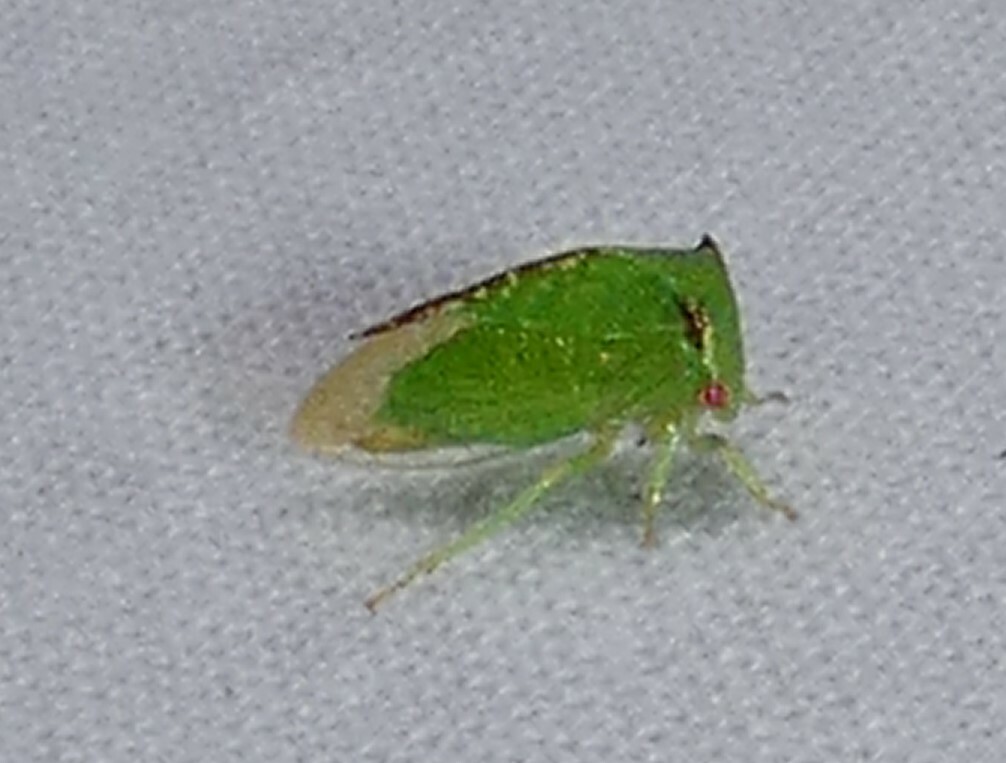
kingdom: Animalia
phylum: Arthropoda
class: Insecta
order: Hemiptera
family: Membracidae
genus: Stictocephala
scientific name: Stictocephala militaris
